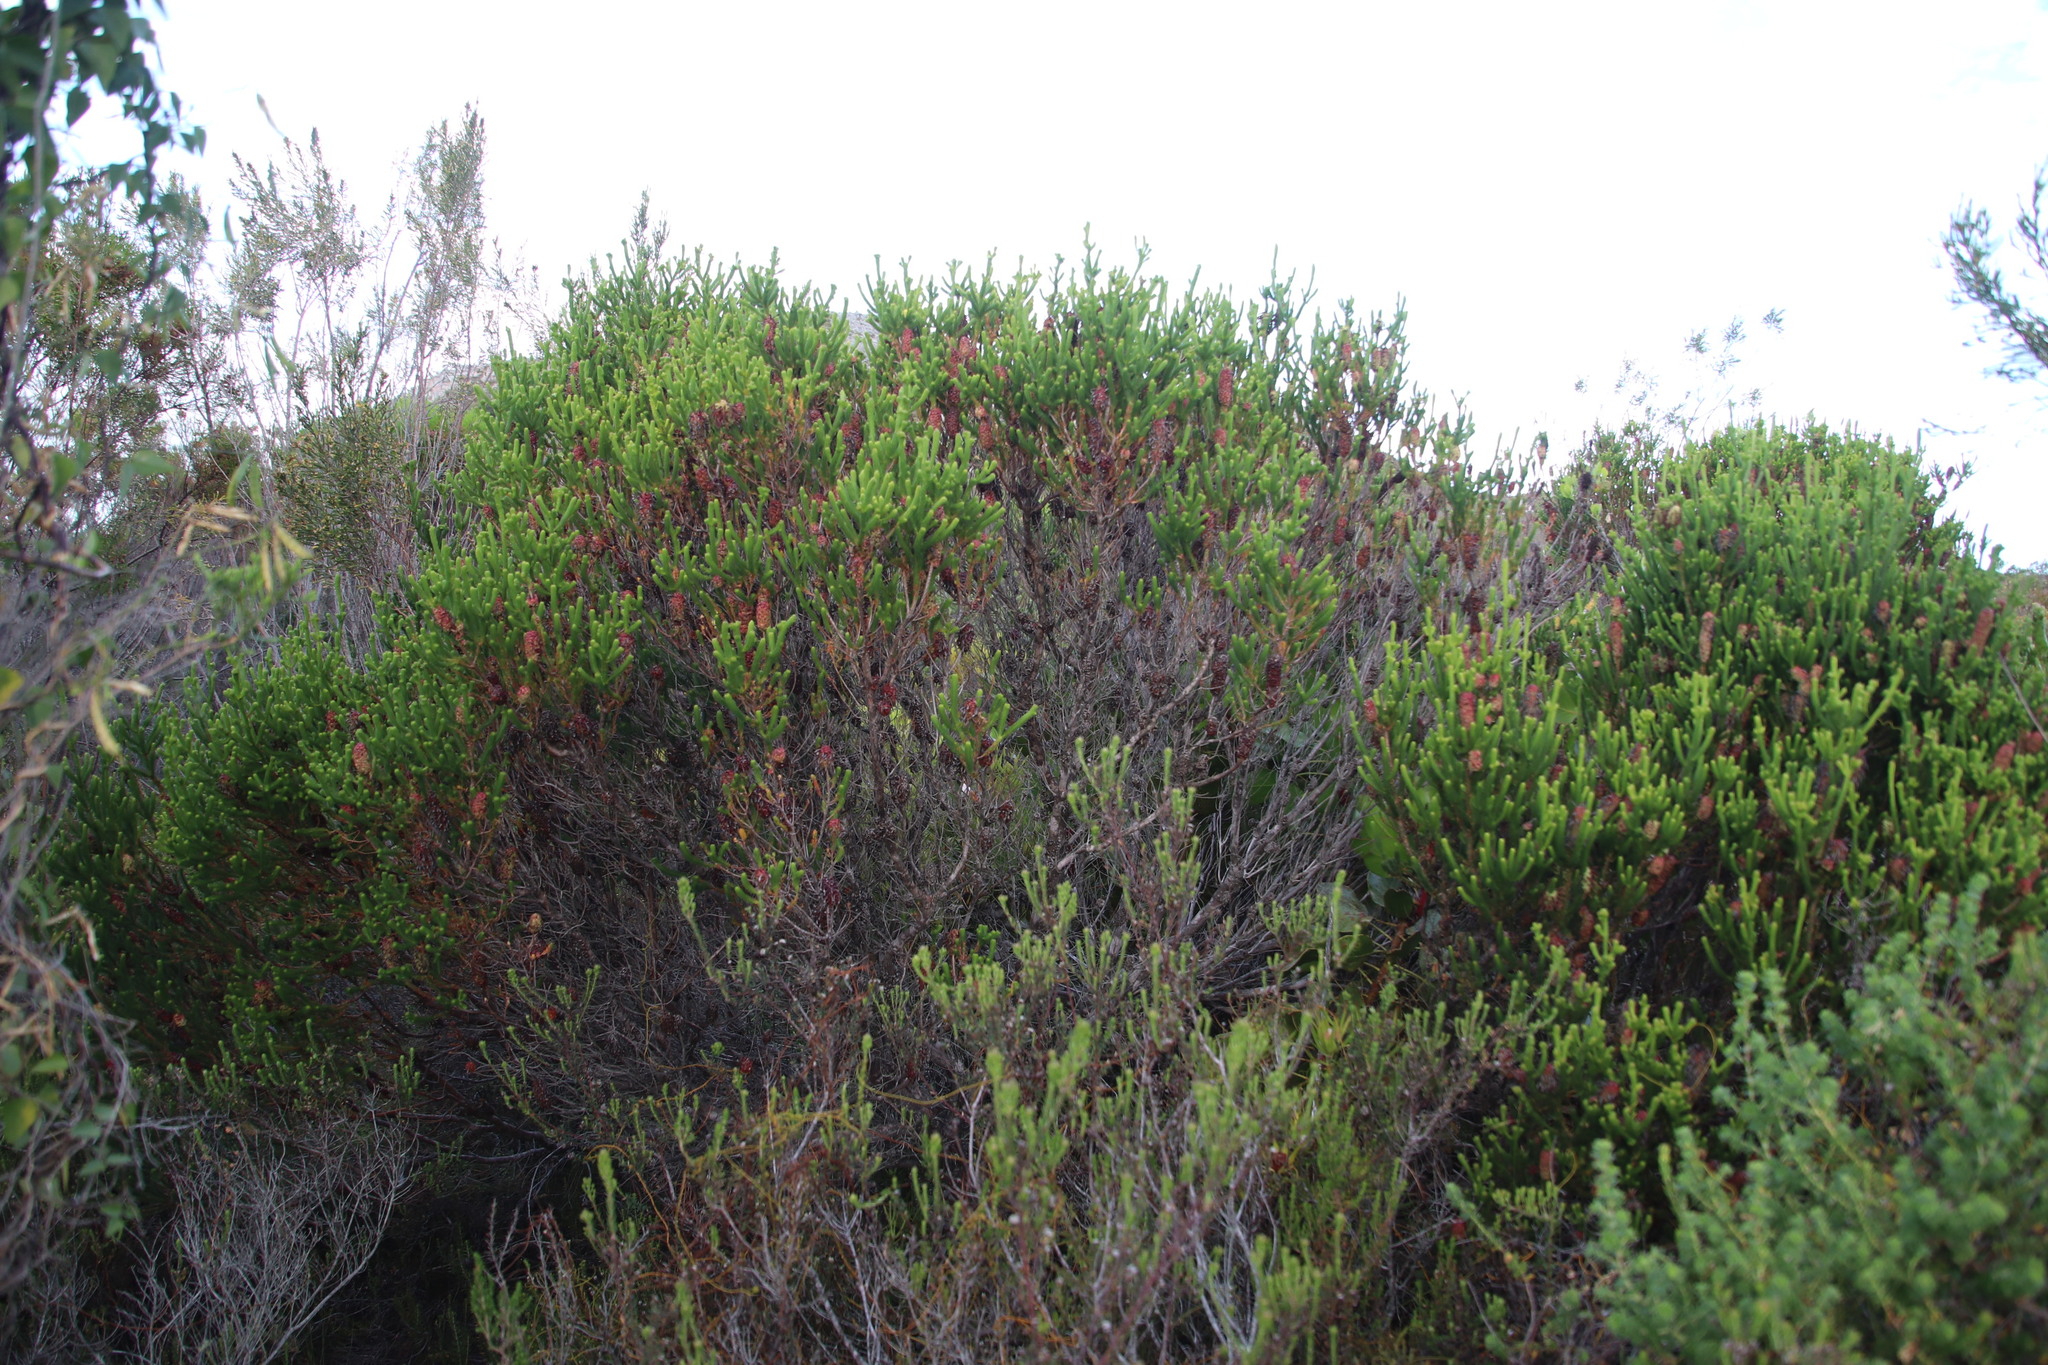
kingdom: Plantae
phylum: Tracheophyta
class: Magnoliopsida
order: Ericales
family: Ericaceae
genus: Erica
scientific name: Erica sessiliflora
